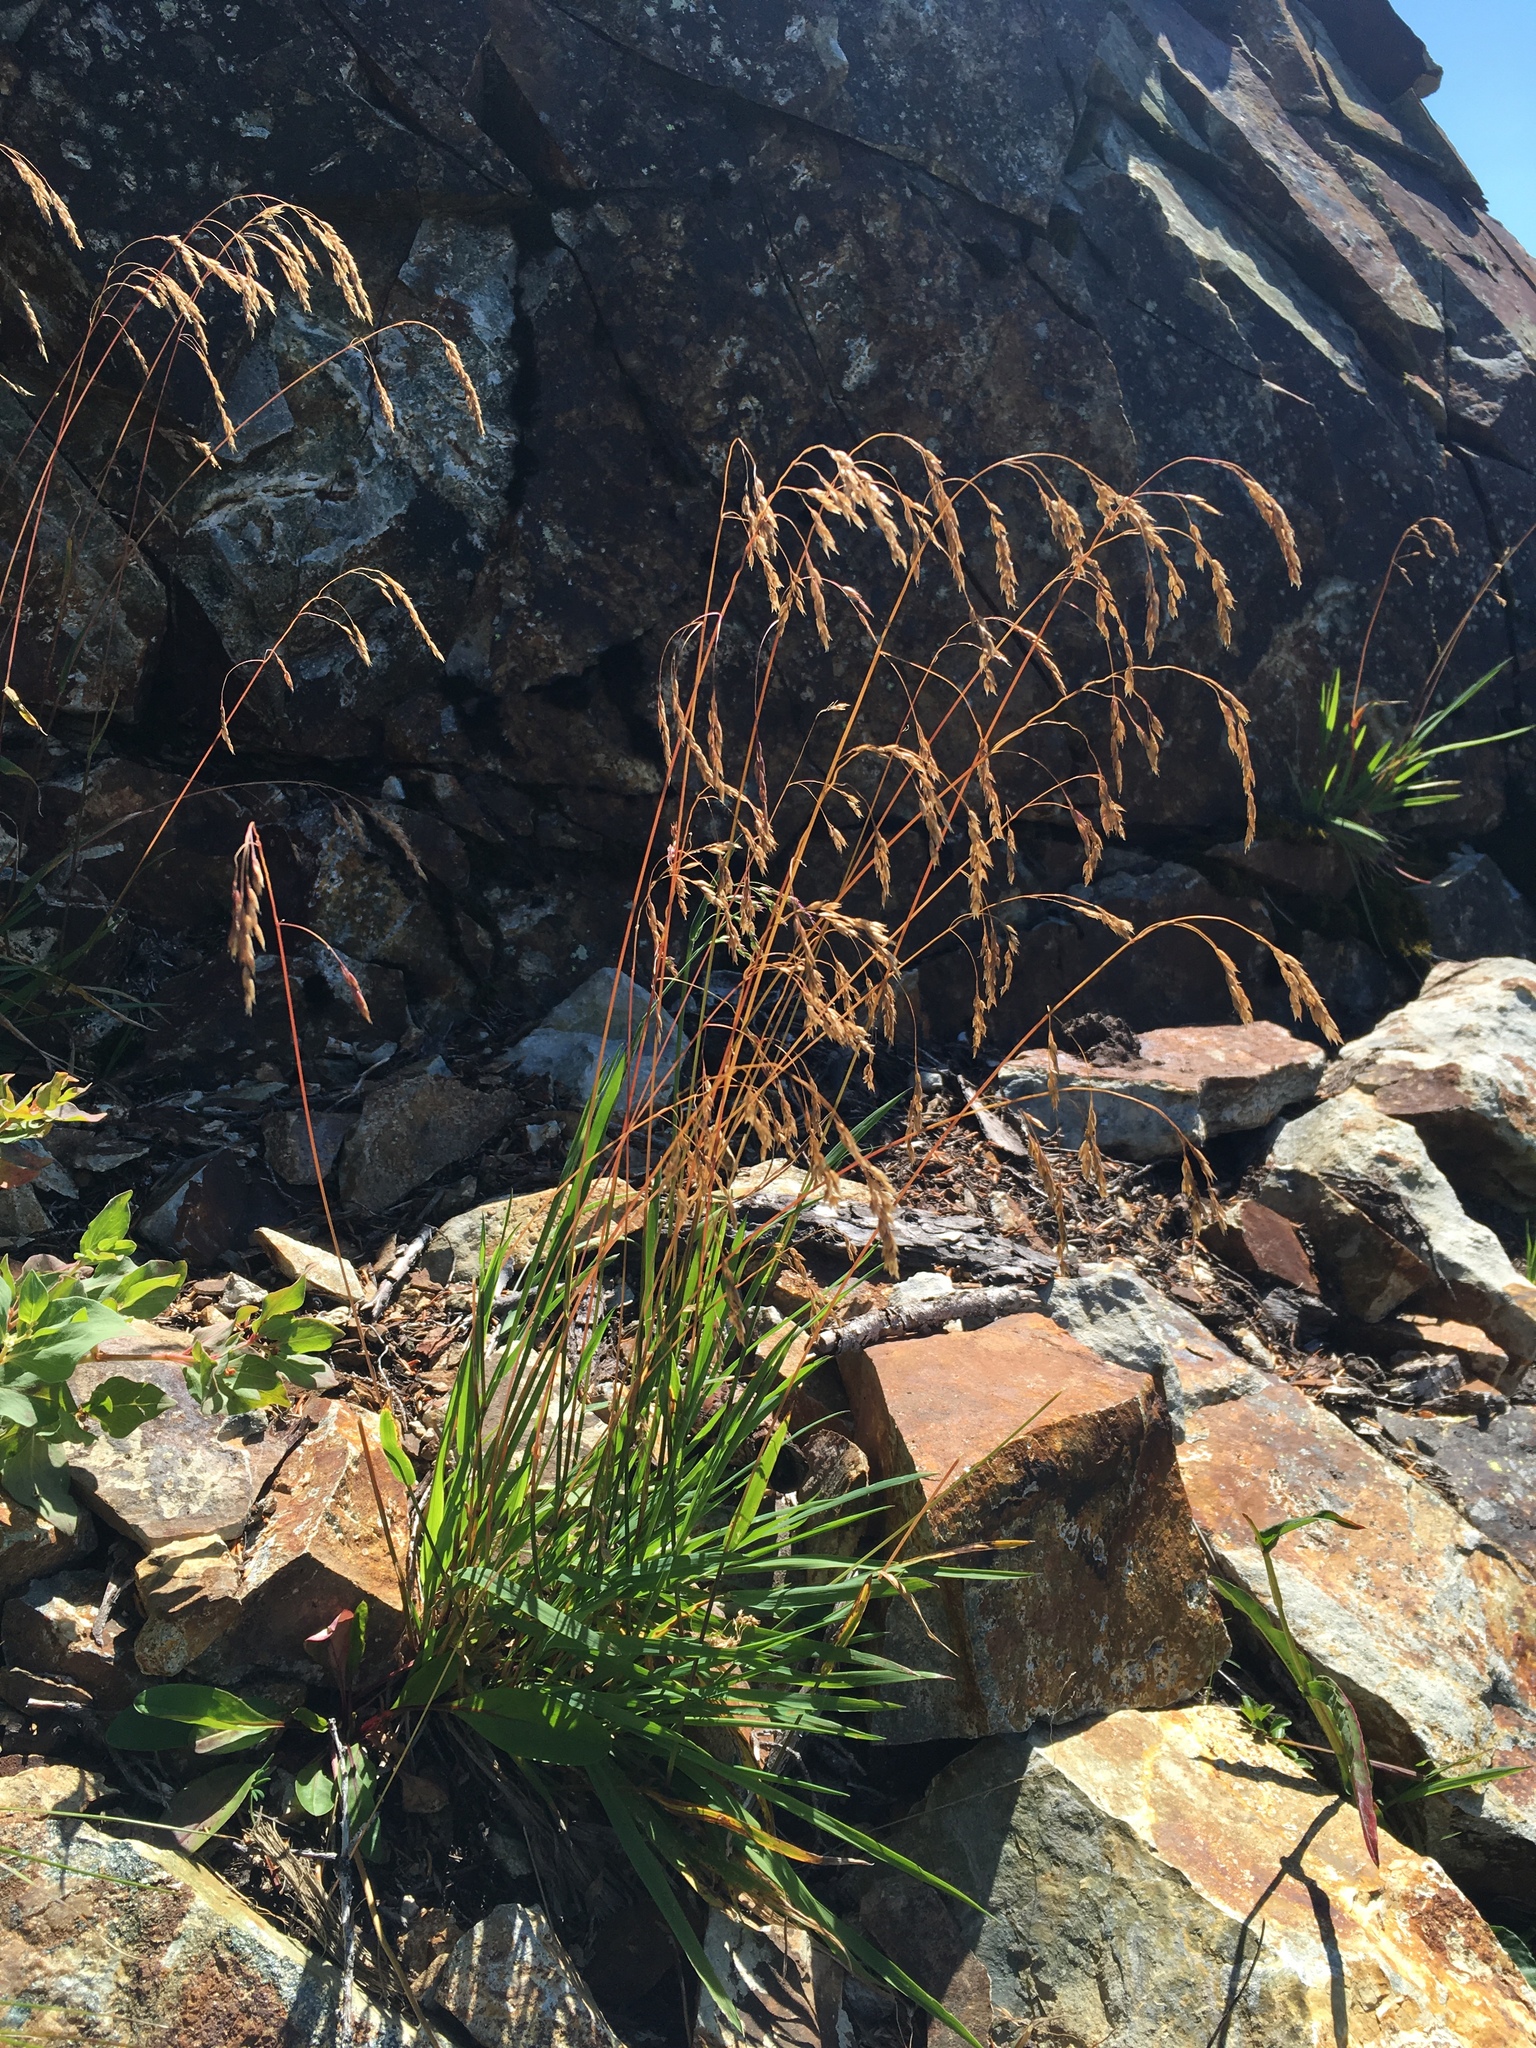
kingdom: Plantae
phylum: Tracheophyta
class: Liliopsida
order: Poales
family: Poaceae
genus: Vahlodea
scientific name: Vahlodea atropurpurea
